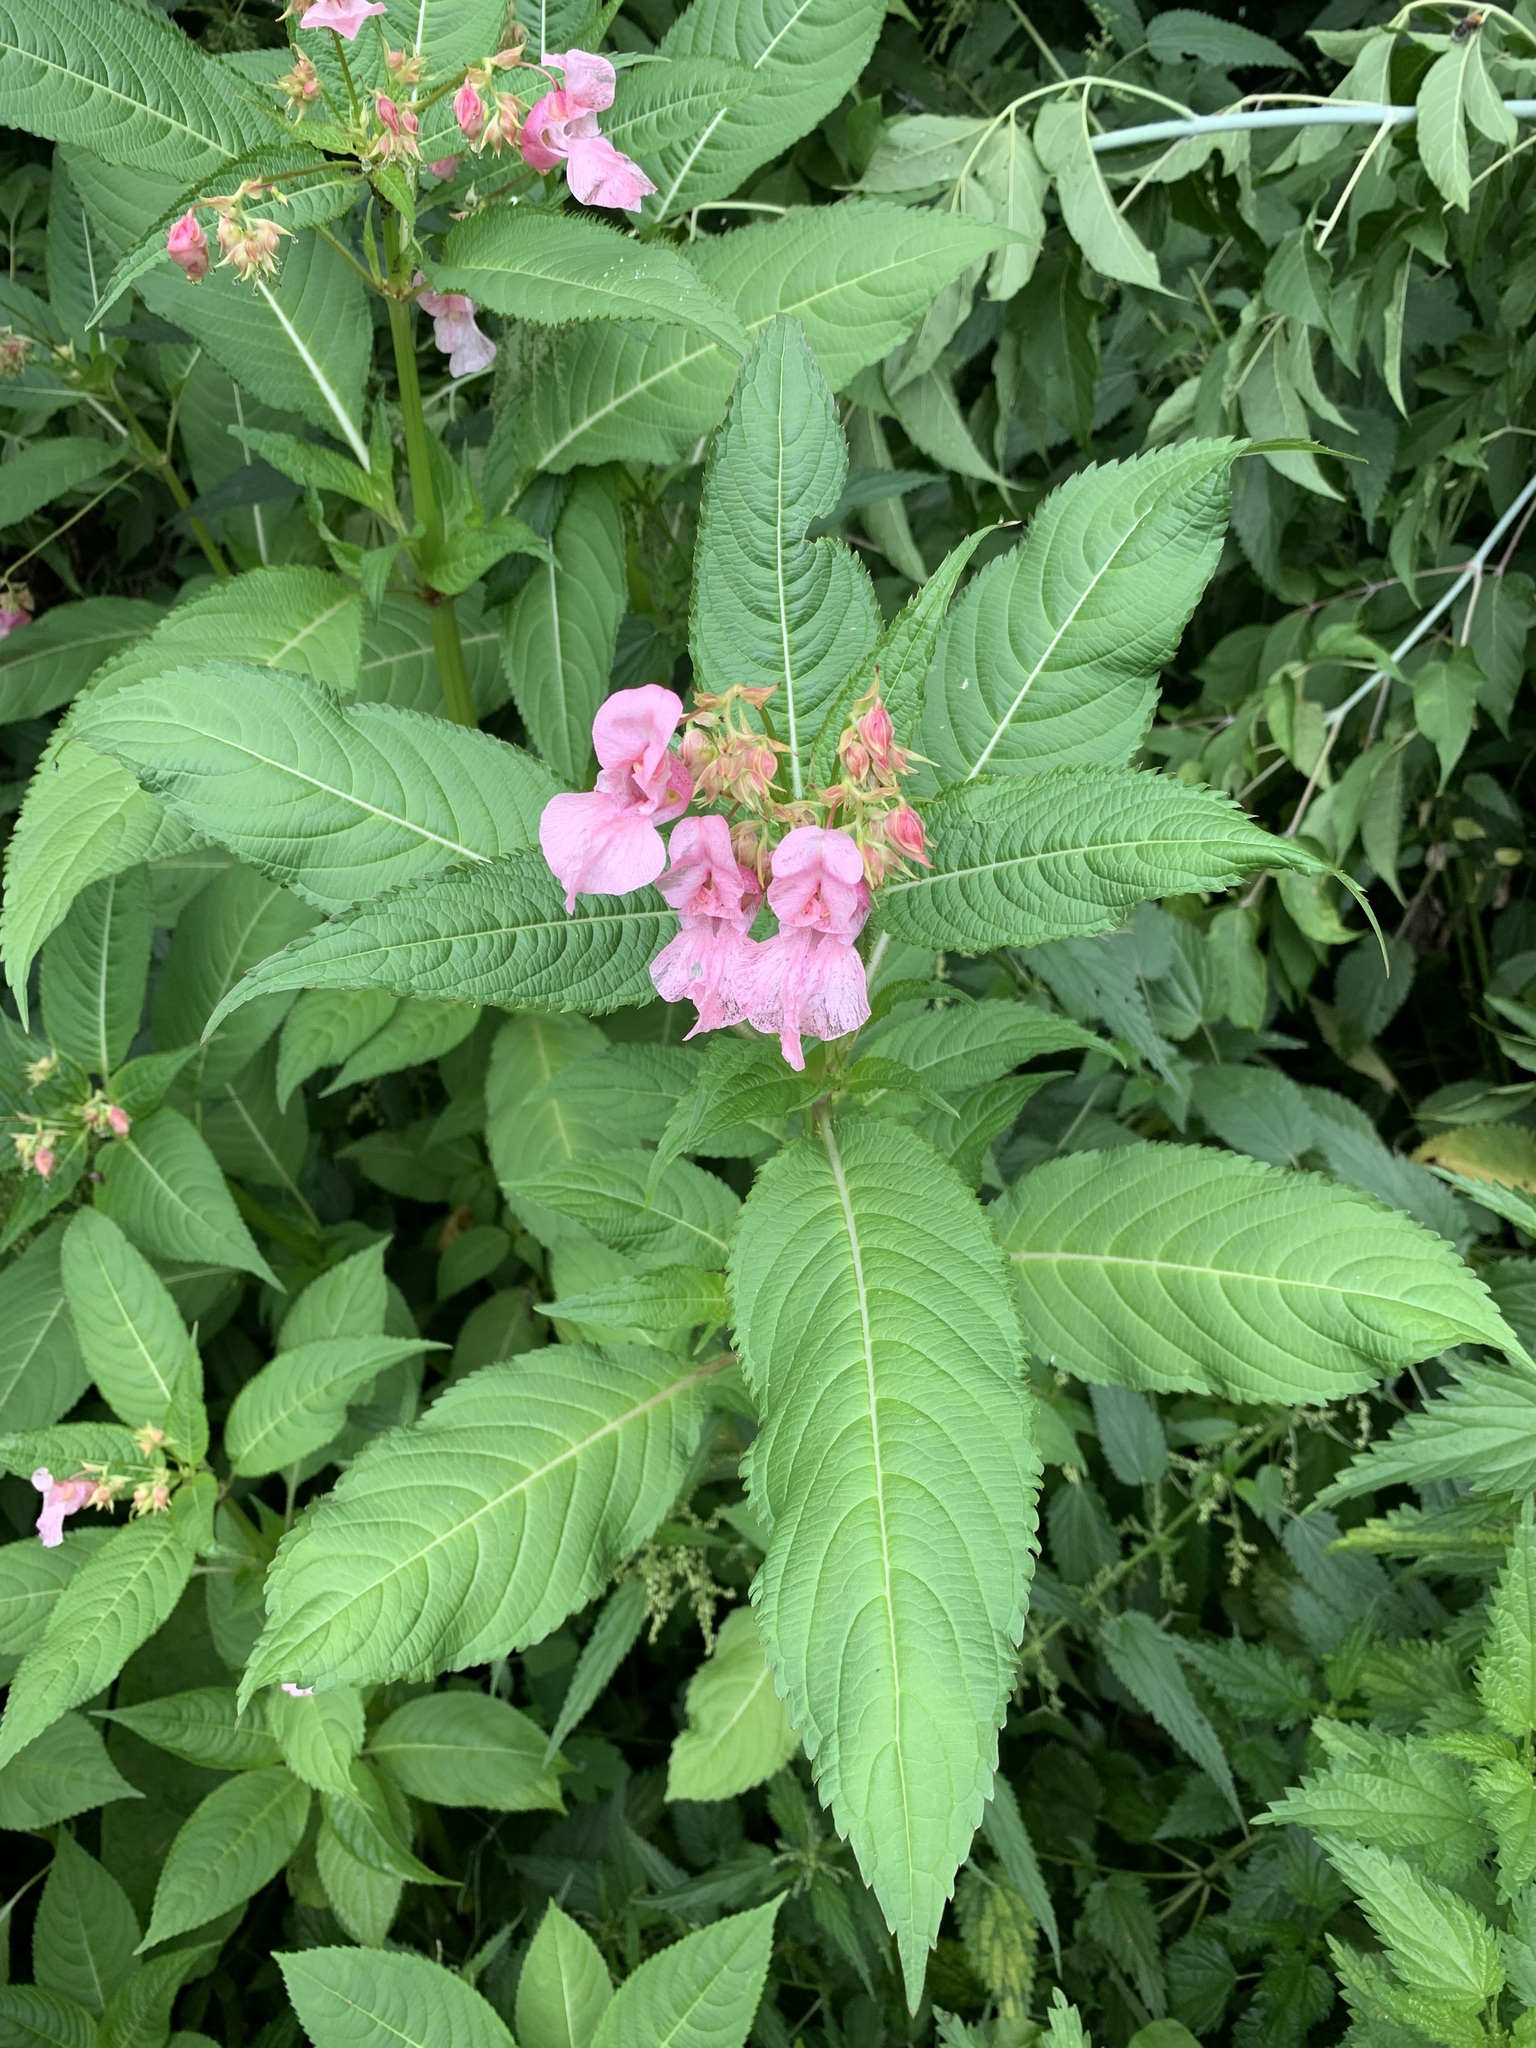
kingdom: Plantae
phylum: Tracheophyta
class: Magnoliopsida
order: Ericales
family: Balsaminaceae
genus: Impatiens
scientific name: Impatiens glandulifera
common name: Himalayan balsam
